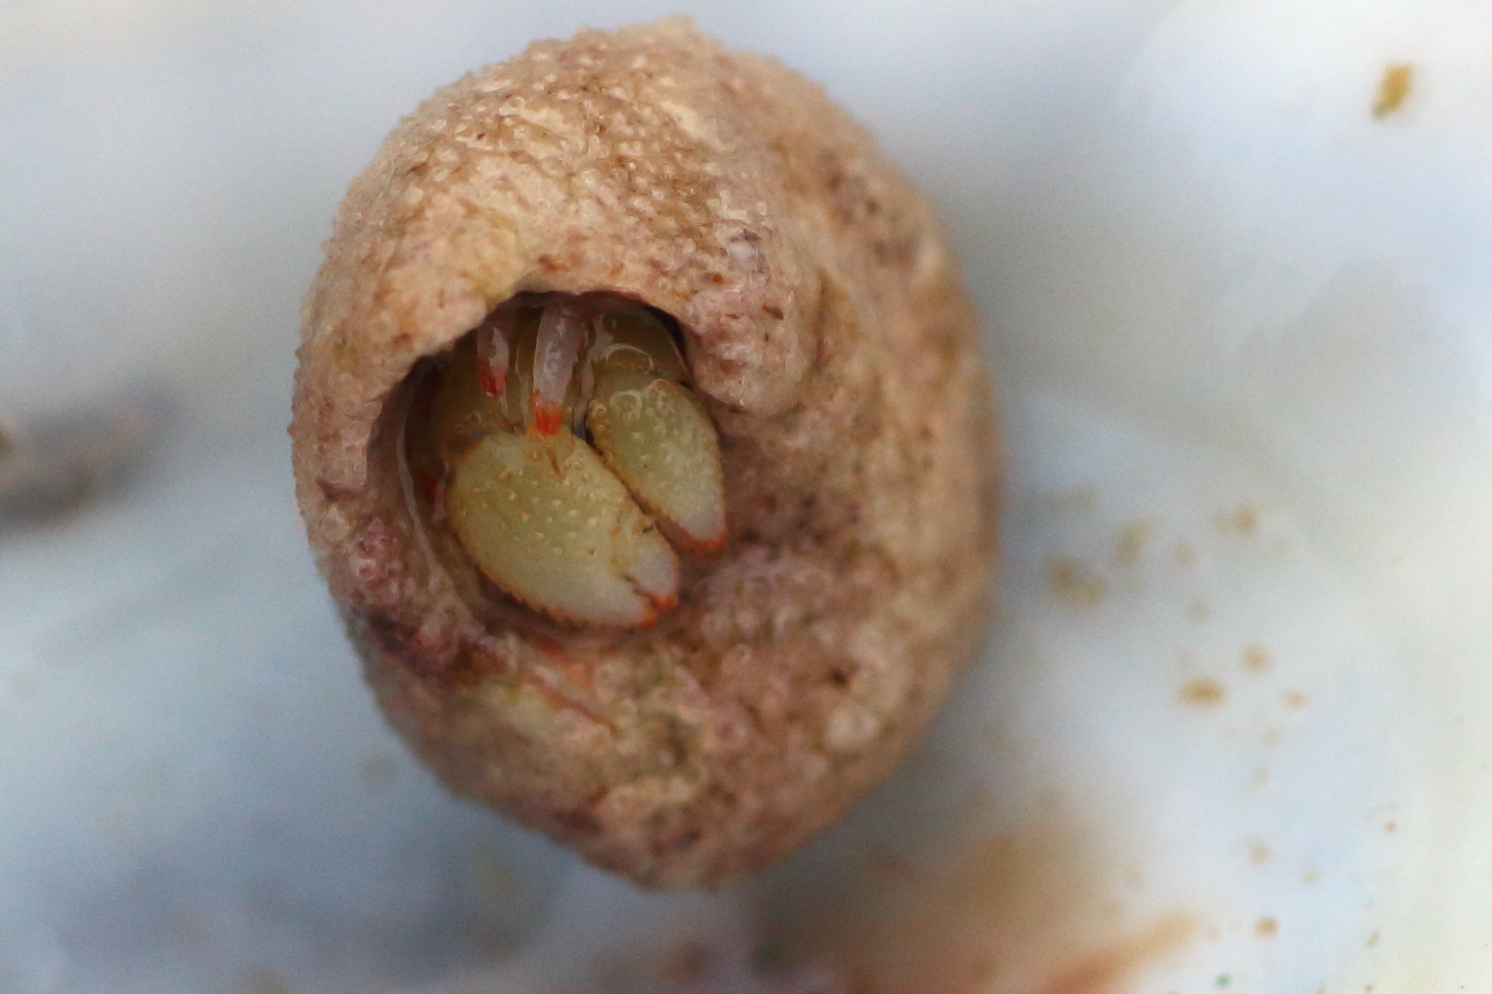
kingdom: Animalia
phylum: Arthropoda
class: Malacostraca
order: Decapoda
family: Paguridae
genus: Pagurus
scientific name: Pagurus beringanus
